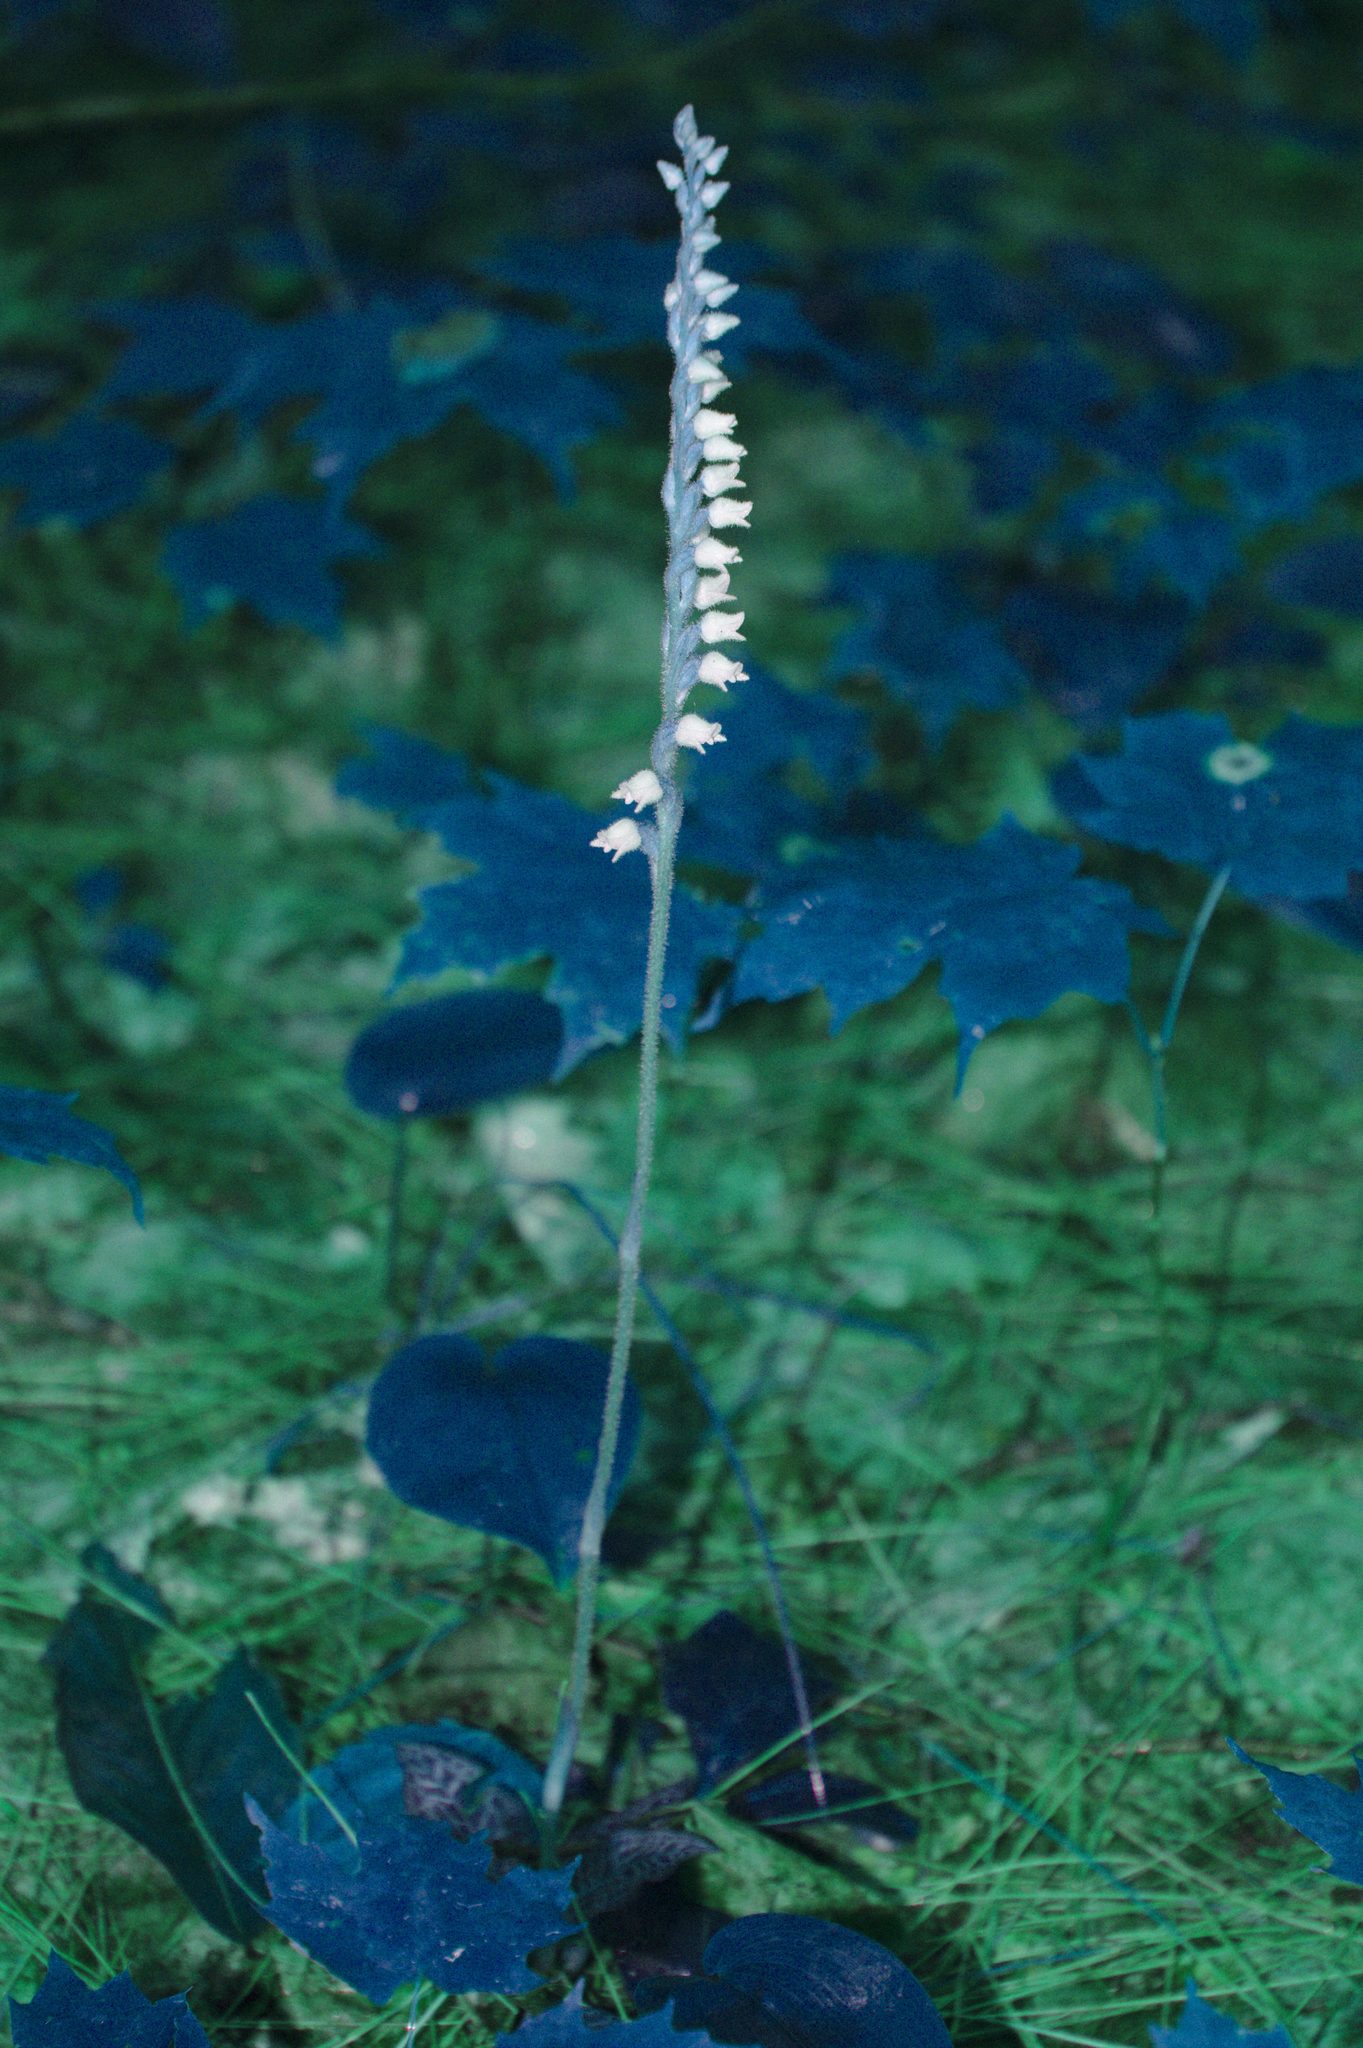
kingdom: Plantae
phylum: Tracheophyta
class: Liliopsida
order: Asparagales
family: Orchidaceae
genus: Goodyera
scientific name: Goodyera tesselata
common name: Checkered rattlesnake-plantain
